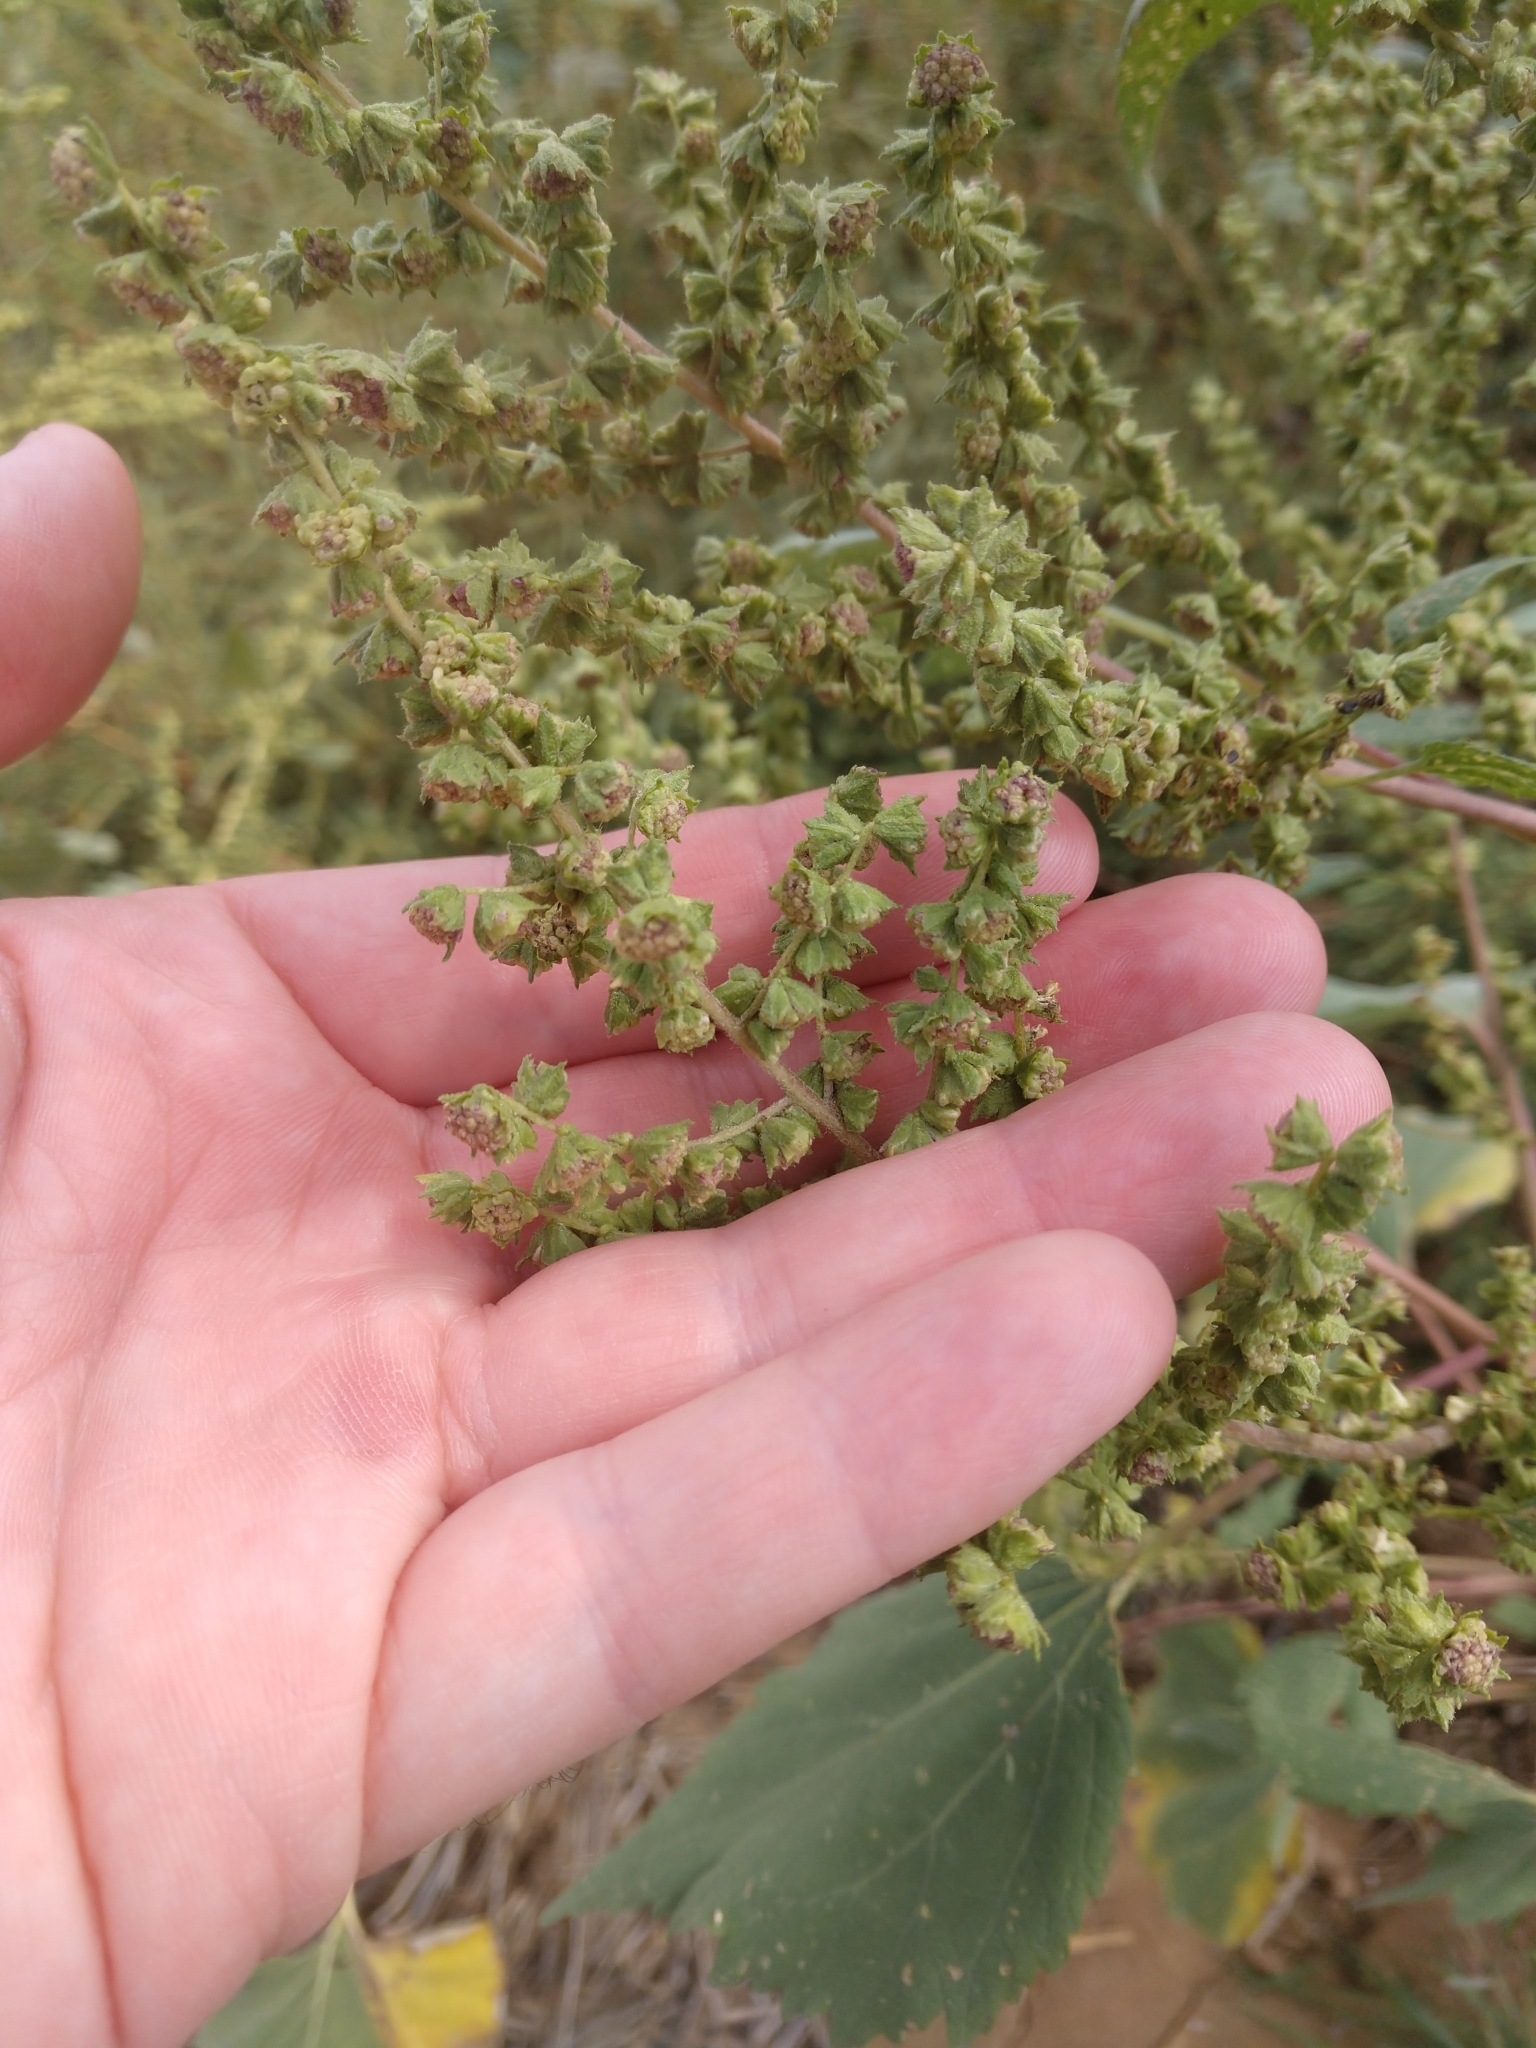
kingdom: Plantae
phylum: Tracheophyta
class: Magnoliopsida
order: Asterales
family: Asteraceae
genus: Cyclachaena
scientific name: Cyclachaena xanthiifolia
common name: Giant sumpweed
